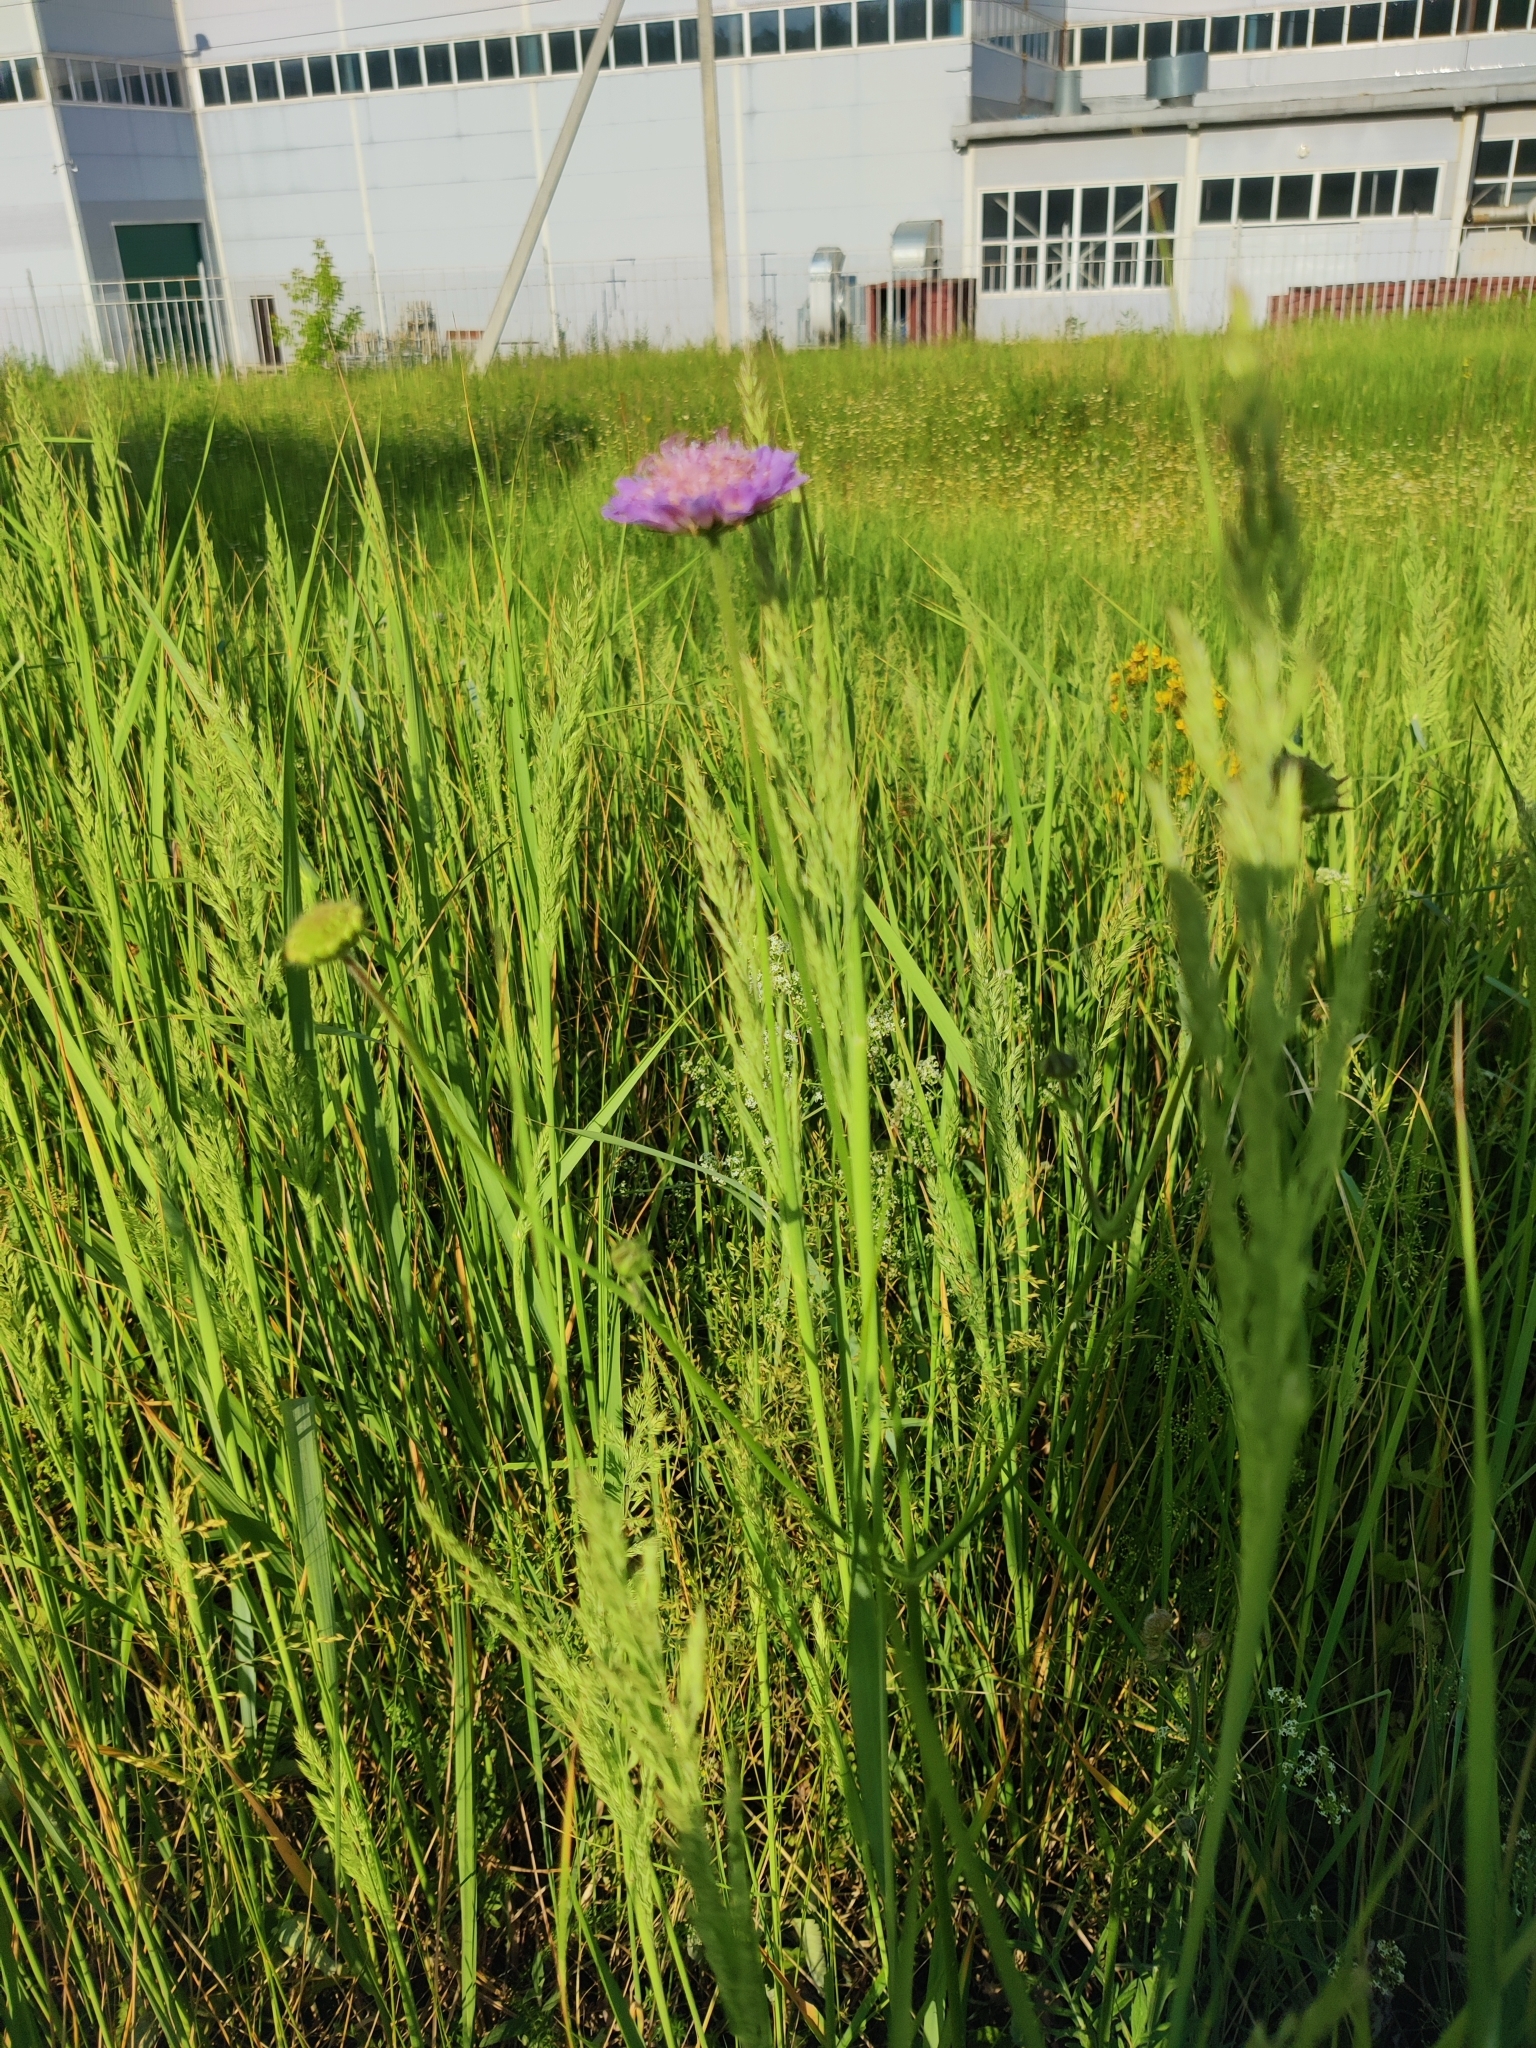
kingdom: Plantae
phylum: Tracheophyta
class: Magnoliopsida
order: Dipsacales
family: Caprifoliaceae
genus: Knautia
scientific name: Knautia arvensis
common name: Field scabiosa
